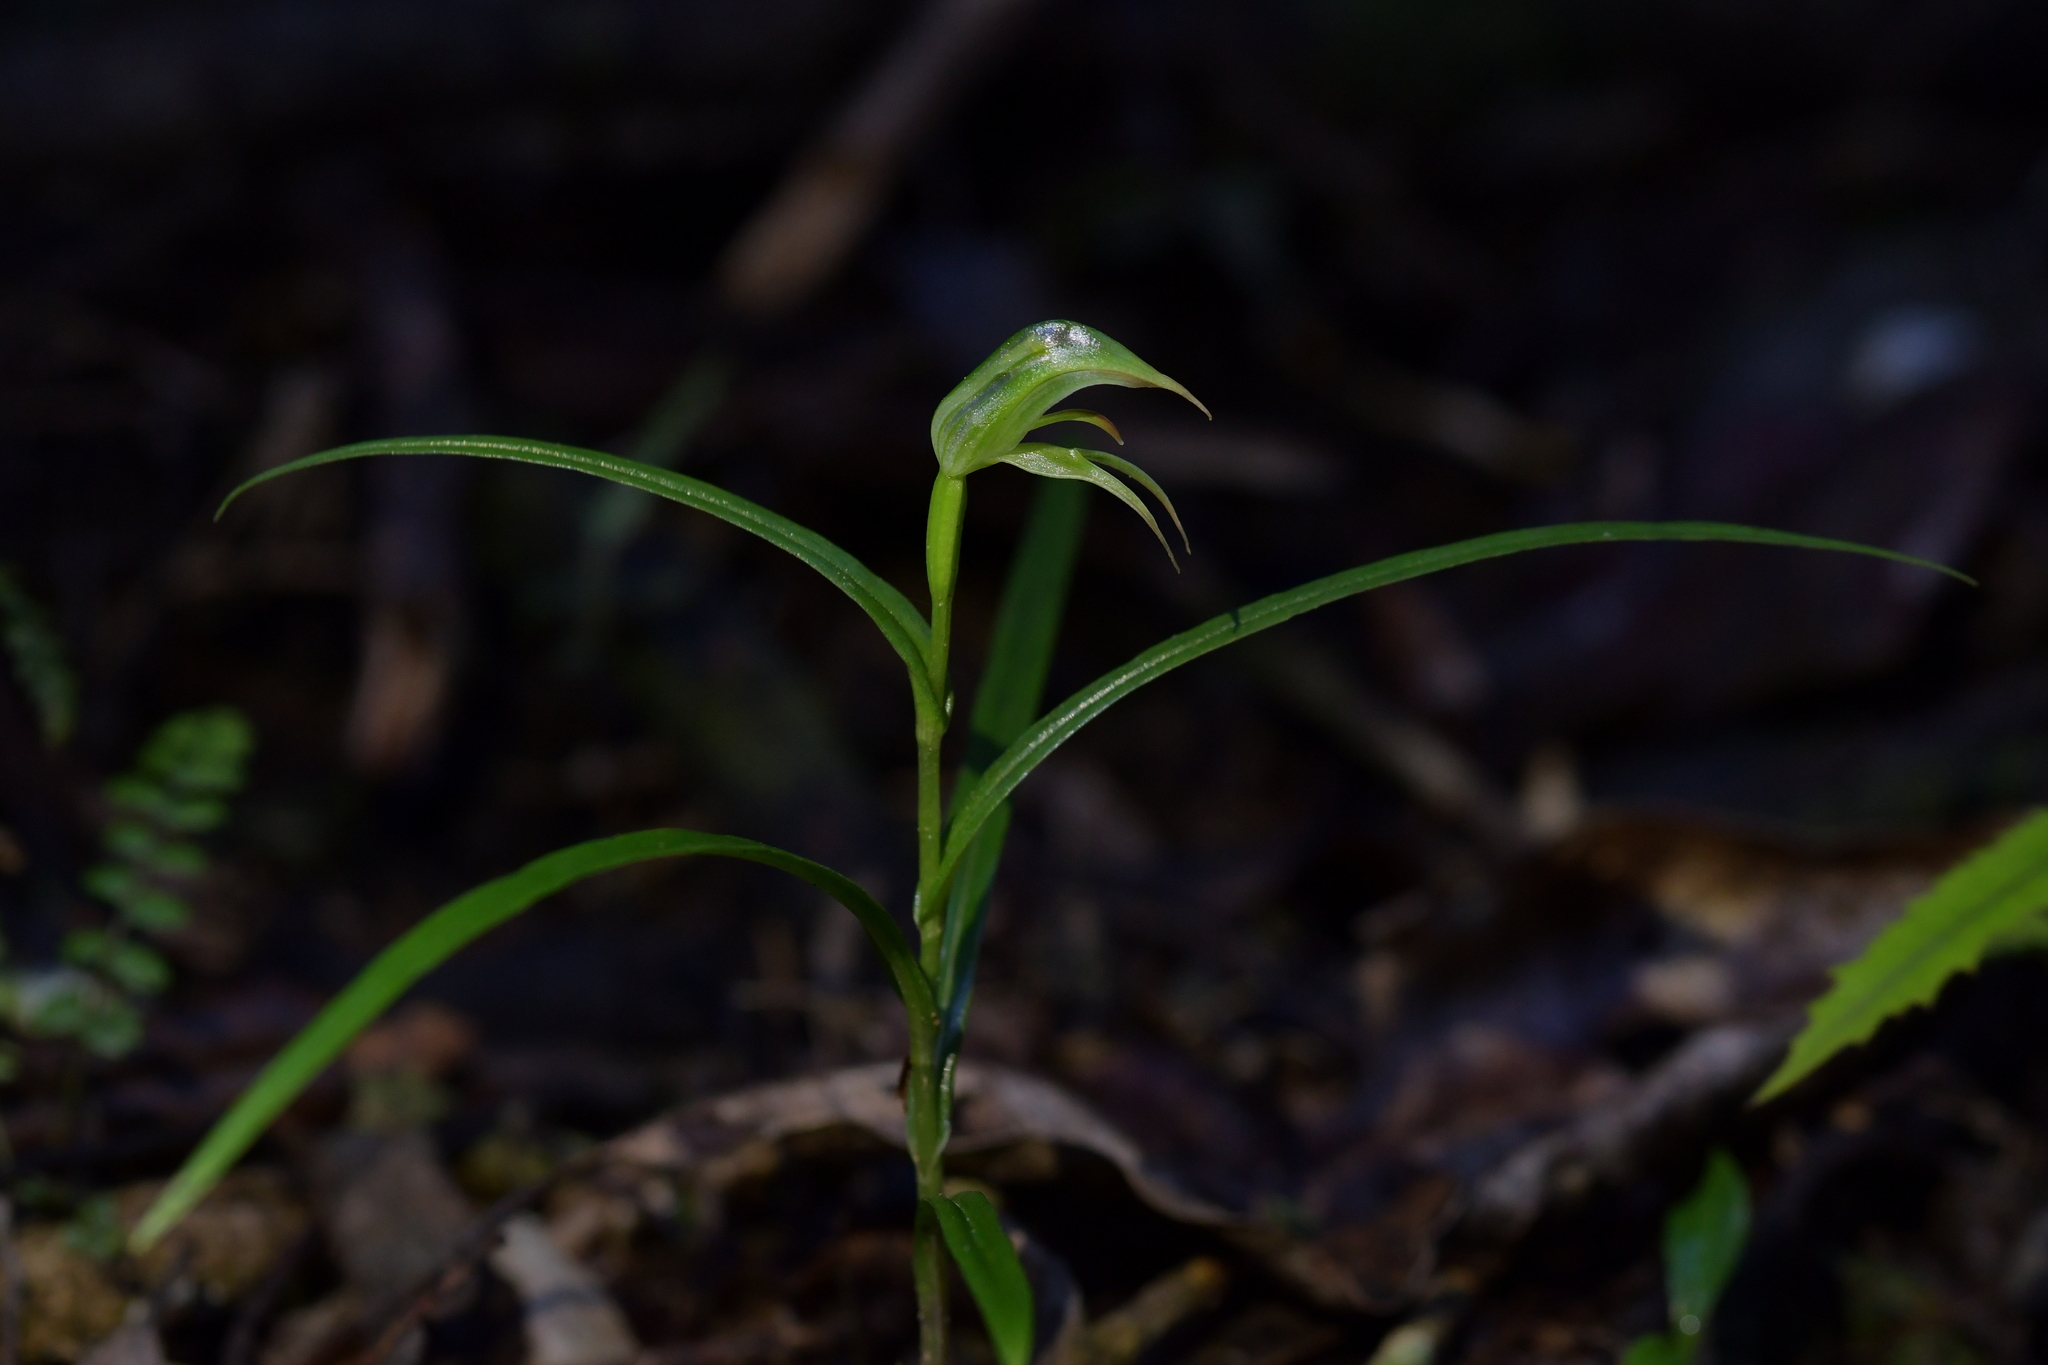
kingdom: Plantae
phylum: Tracheophyta
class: Liliopsida
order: Asparagales
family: Orchidaceae
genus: Pterostylis
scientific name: Pterostylis porrecta
